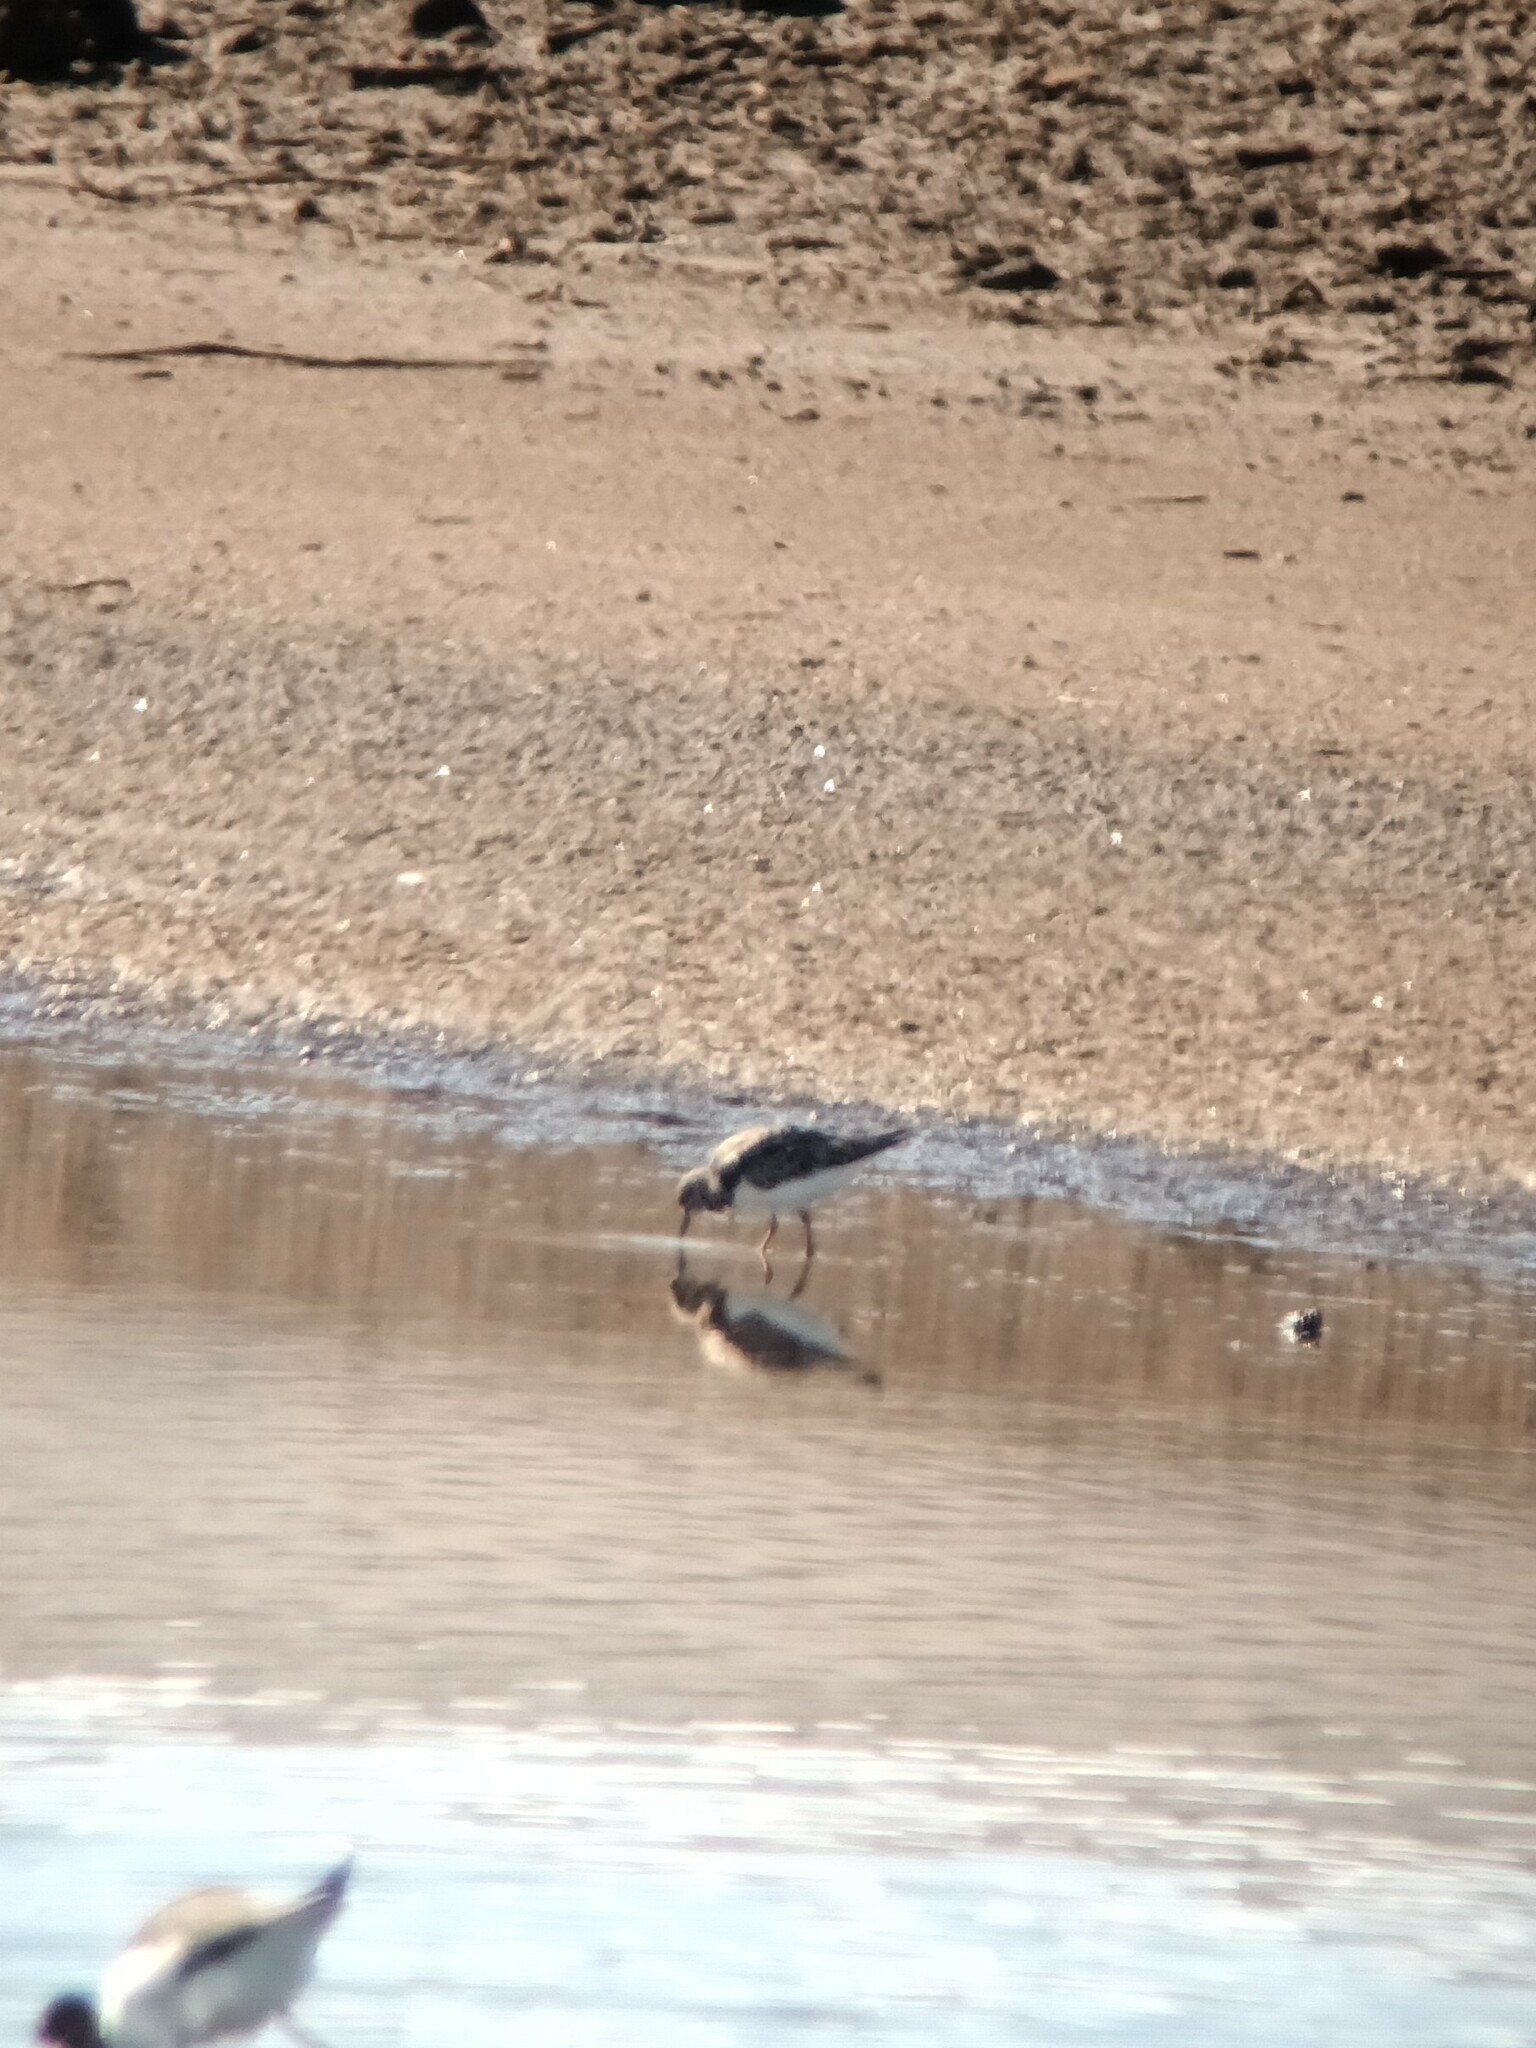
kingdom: Animalia
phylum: Chordata
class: Aves
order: Charadriiformes
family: Scolopacidae
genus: Arenaria
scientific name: Arenaria interpres
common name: Ruddy turnstone
